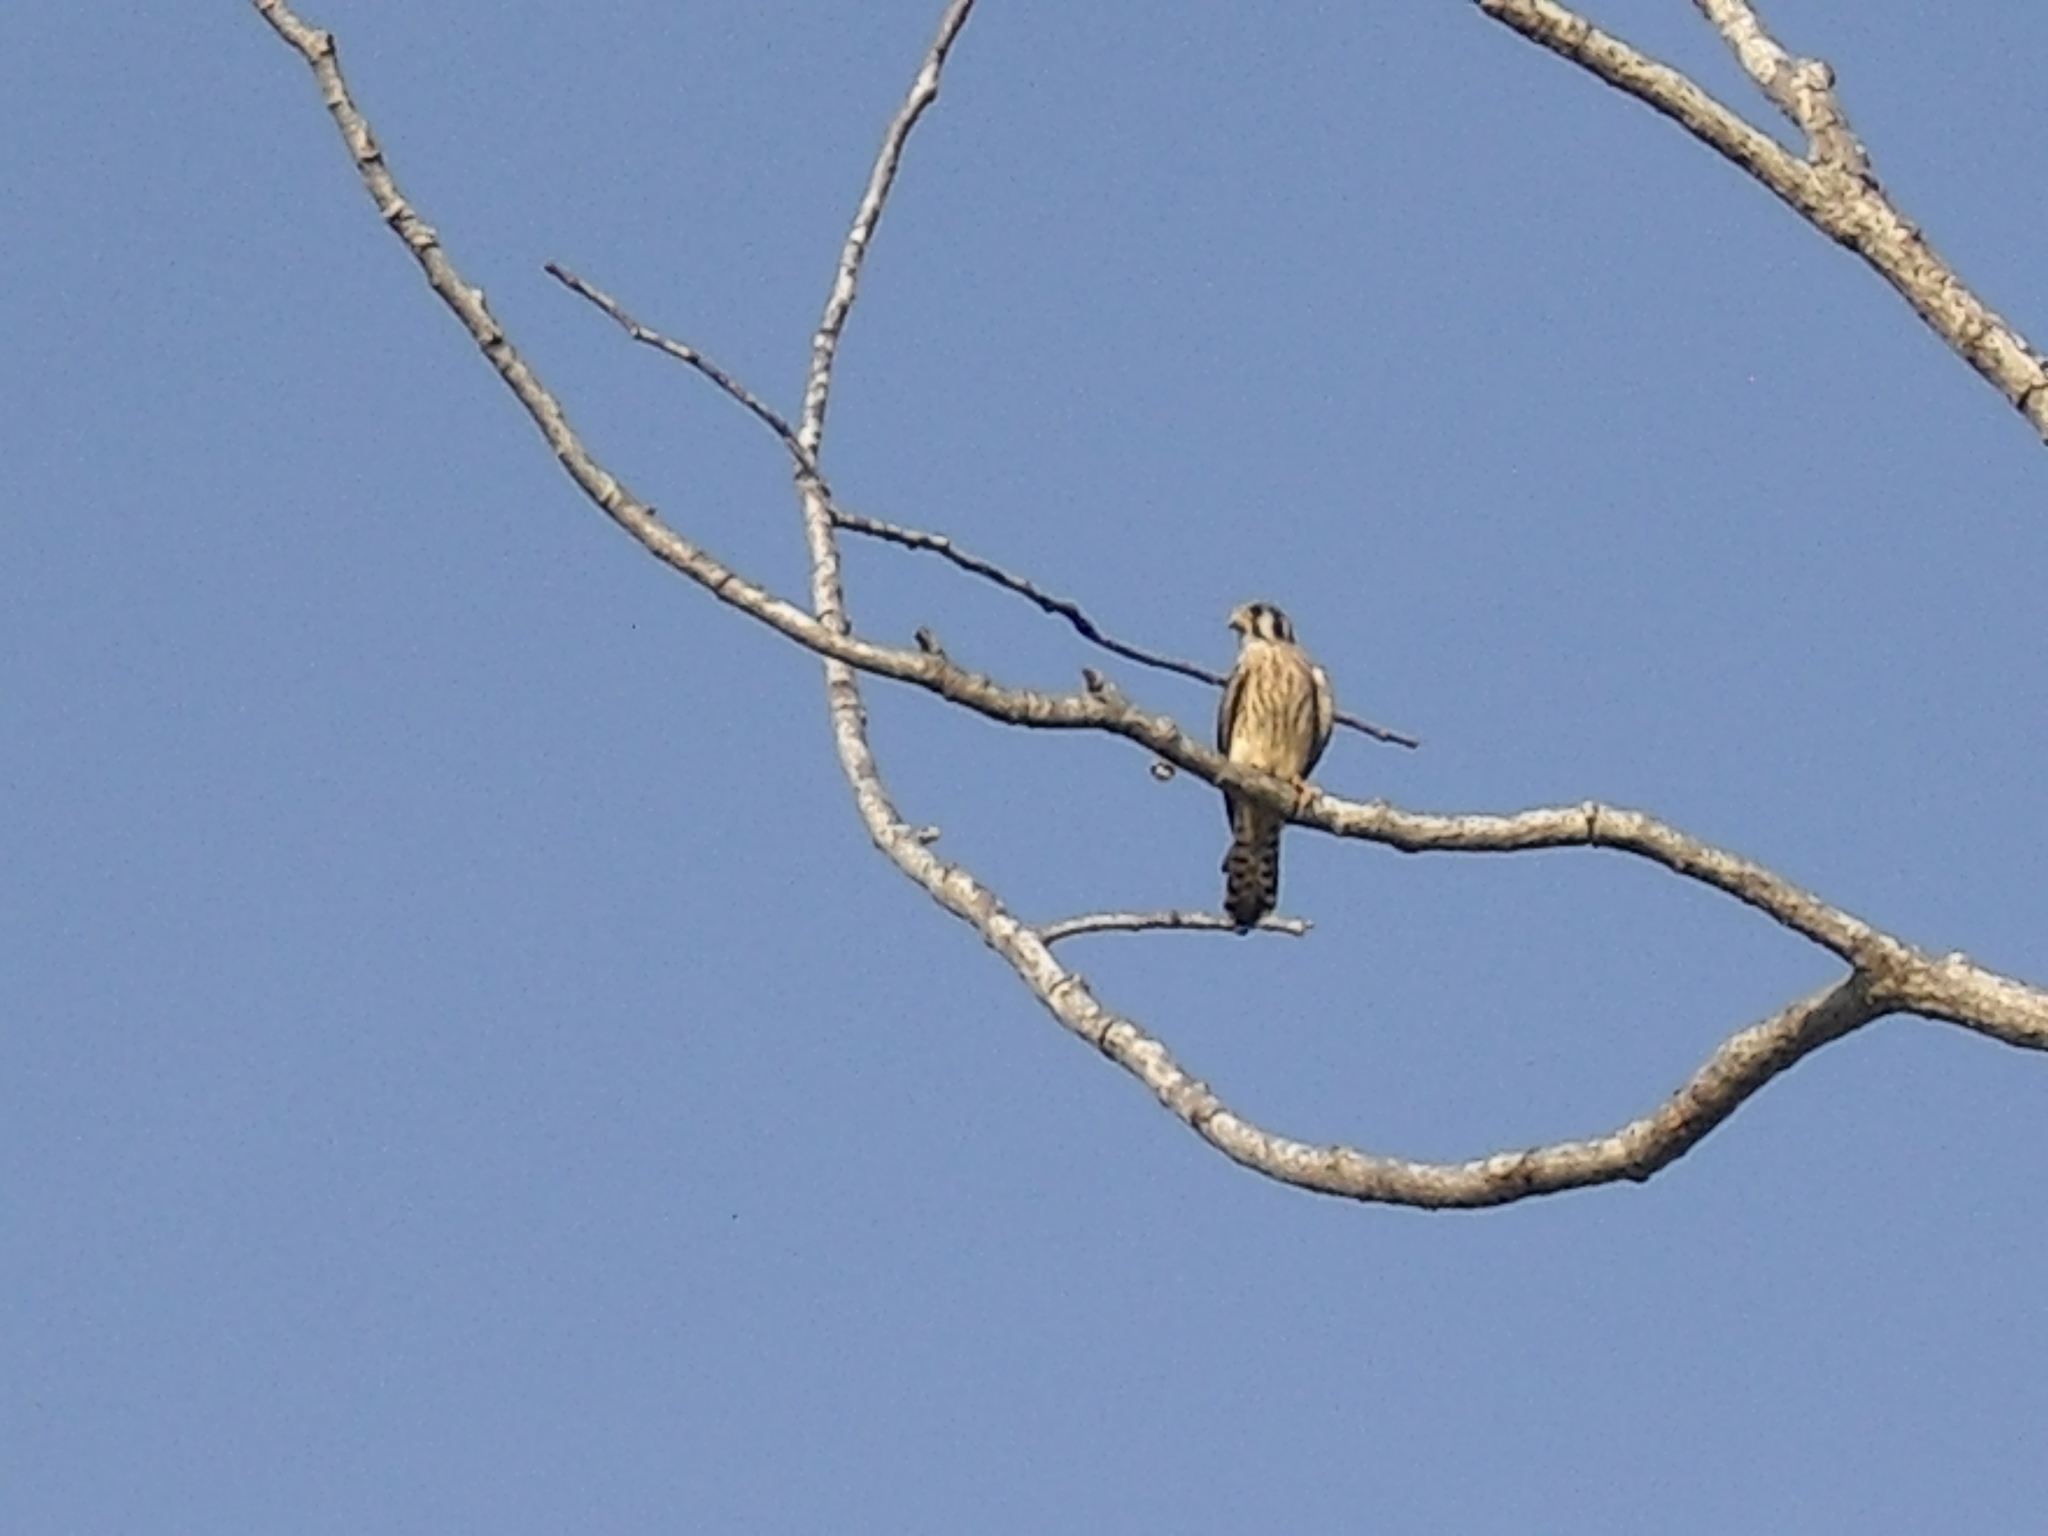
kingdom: Animalia
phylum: Chordata
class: Aves
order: Falconiformes
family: Falconidae
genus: Falco
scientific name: Falco sparverius
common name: American kestrel
